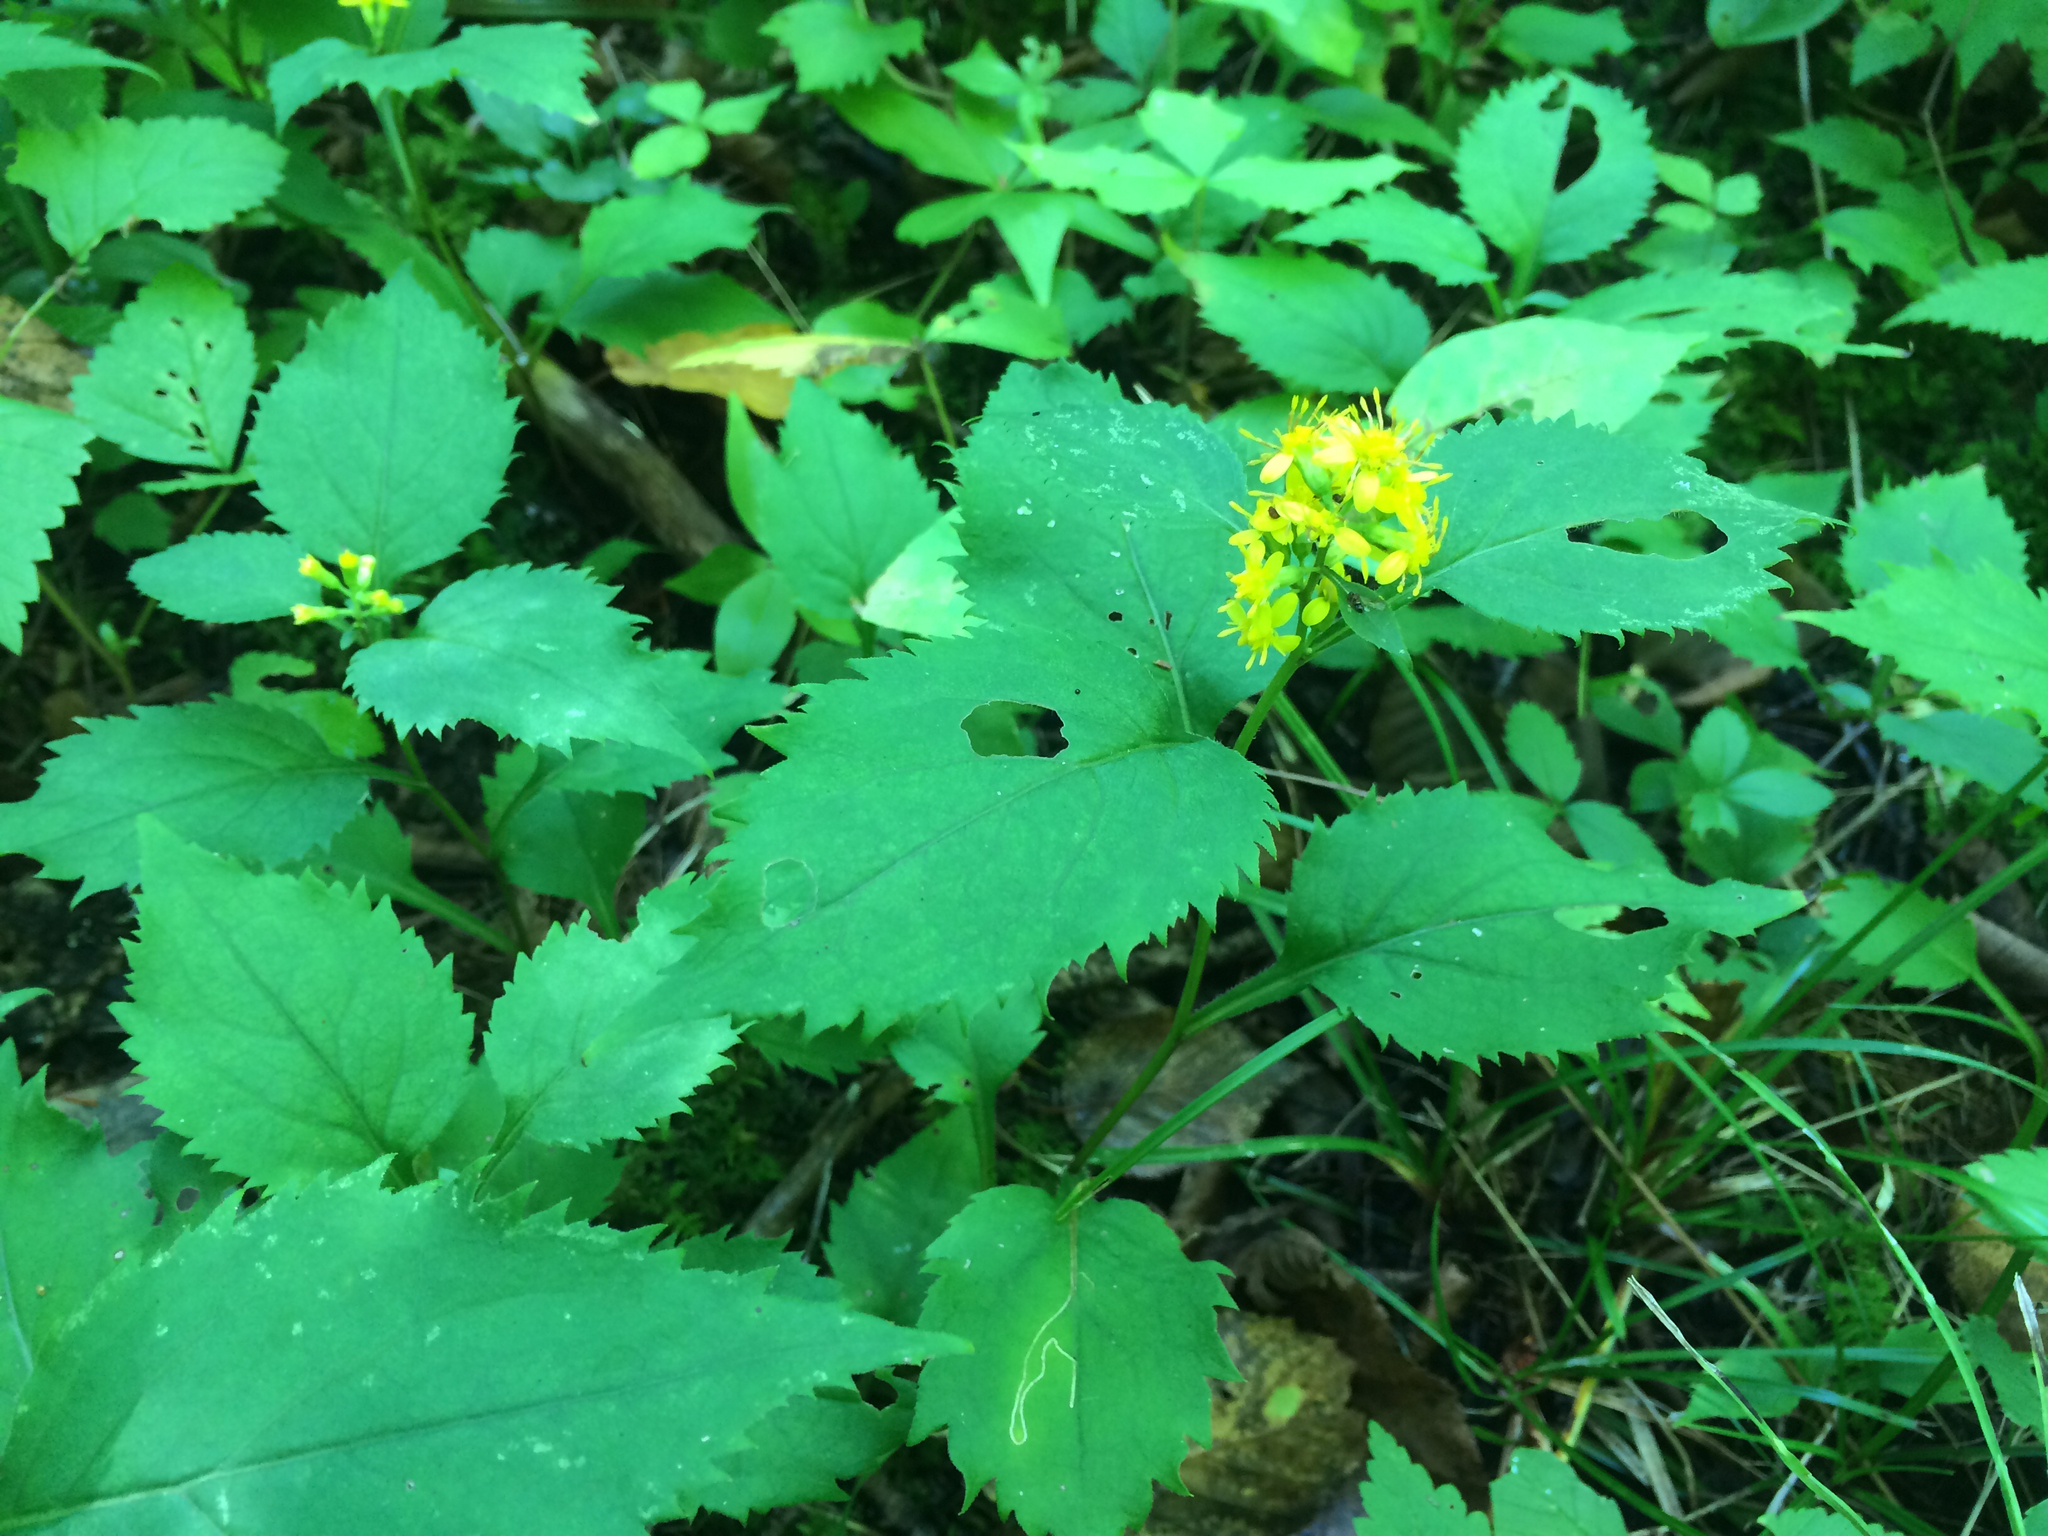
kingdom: Plantae
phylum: Tracheophyta
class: Magnoliopsida
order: Asterales
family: Asteraceae
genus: Solidago
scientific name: Solidago flexicaulis
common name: Zig-zag goldenrod
